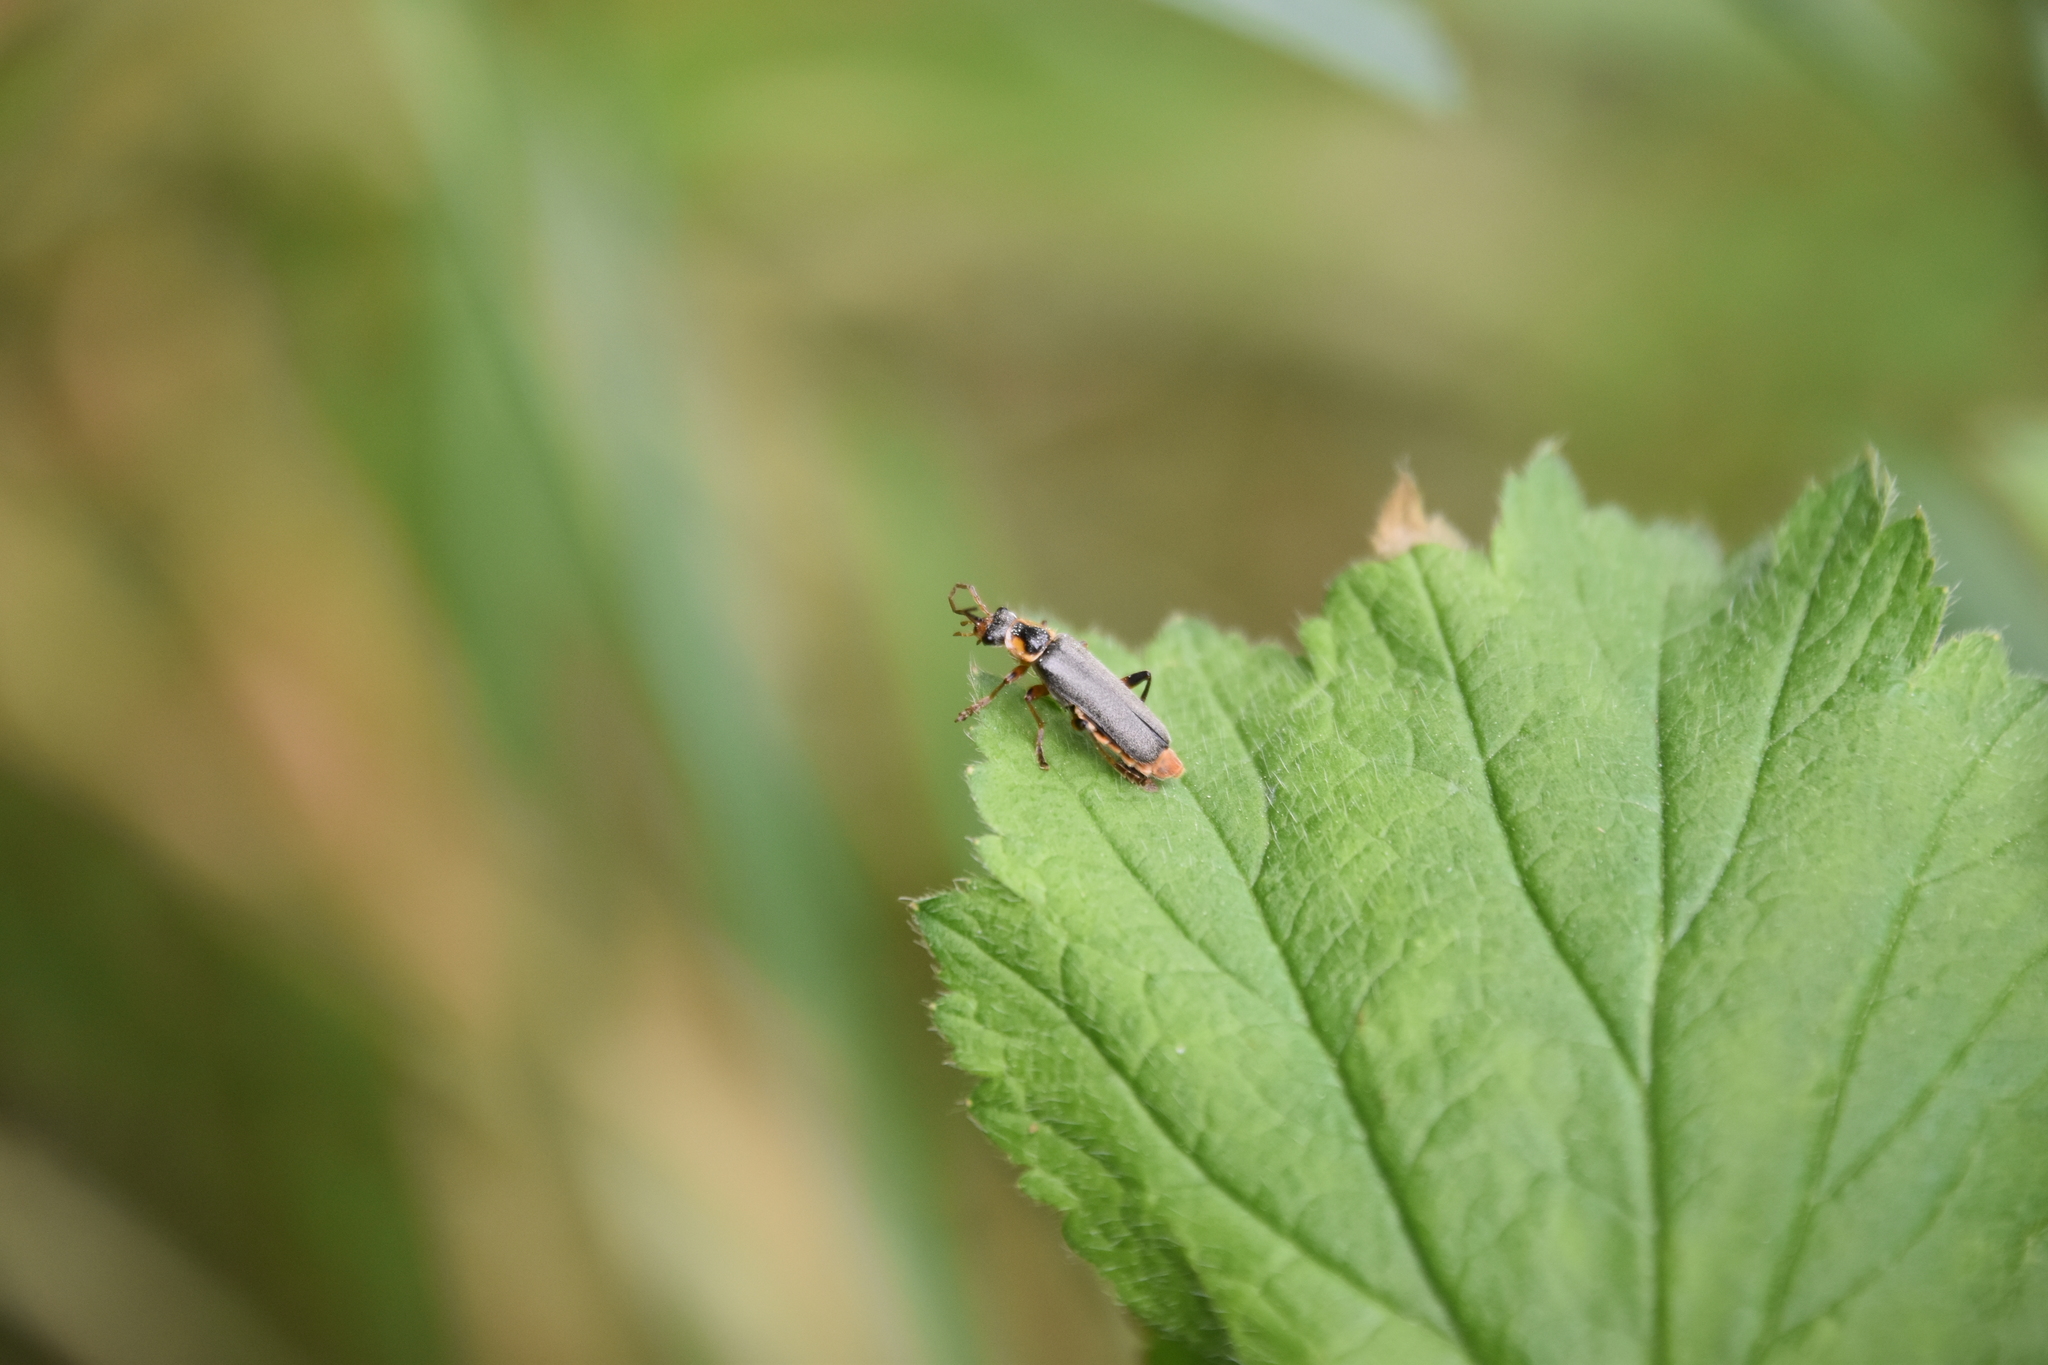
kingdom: Animalia
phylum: Arthropoda
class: Insecta
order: Coleoptera
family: Cantharidae
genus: Cantharis
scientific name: Cantharis nigricans
